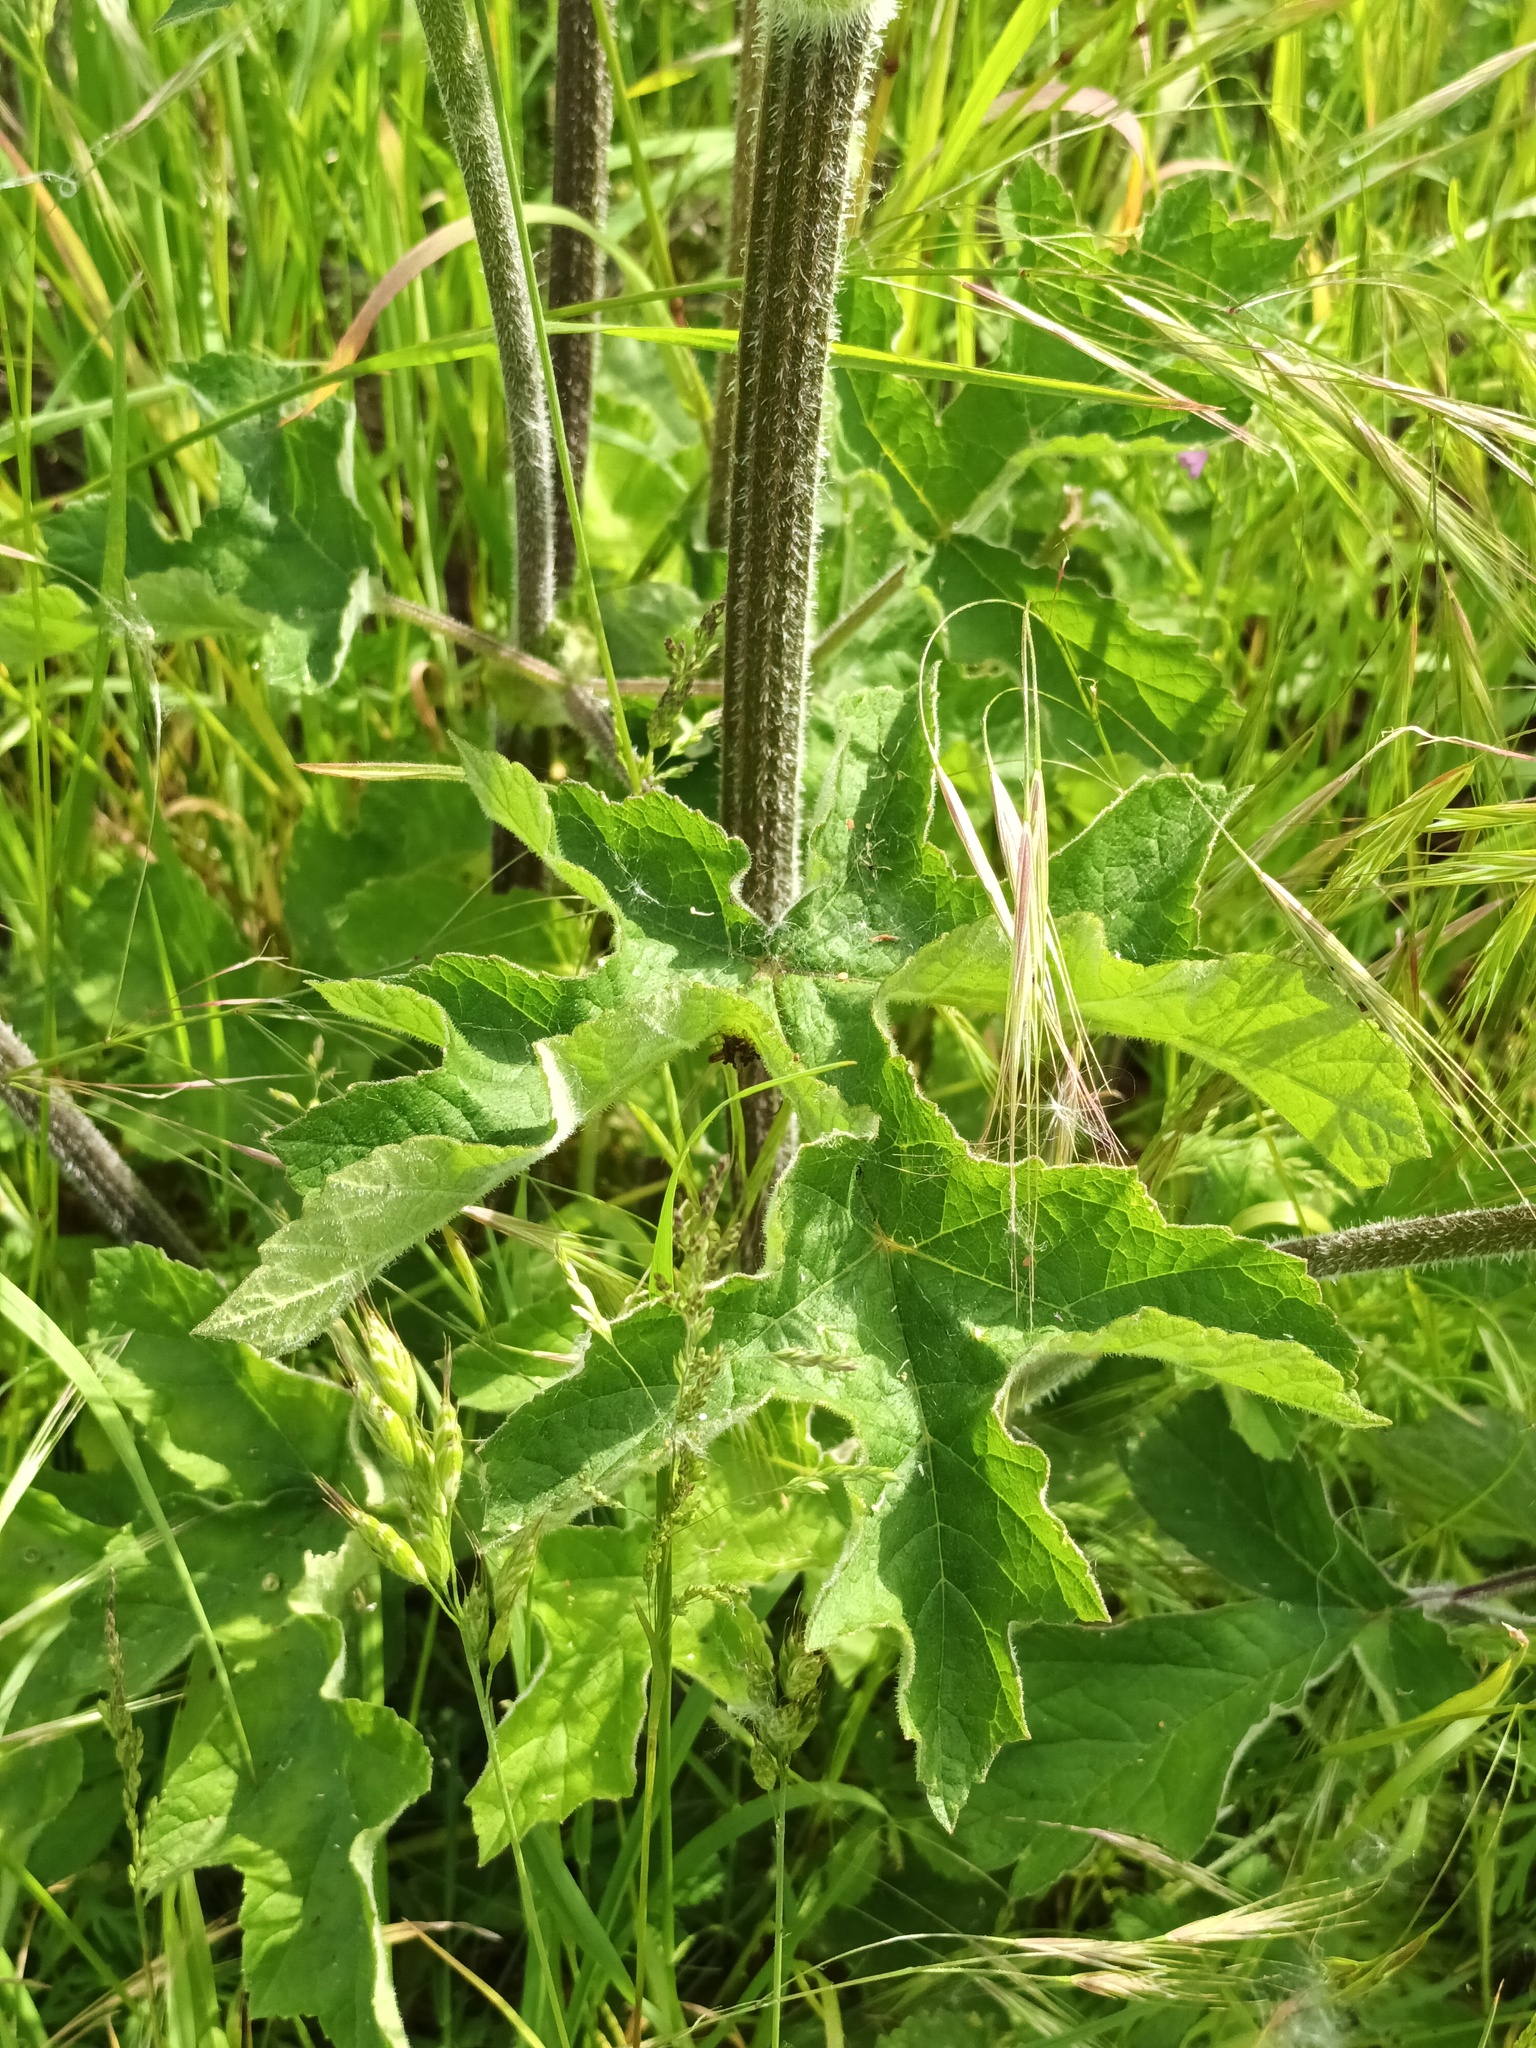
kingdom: Plantae
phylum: Tracheophyta
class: Magnoliopsida
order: Apiales
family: Apiaceae
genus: Heracleum
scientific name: Heracleum sphondylium
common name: Hogweed
